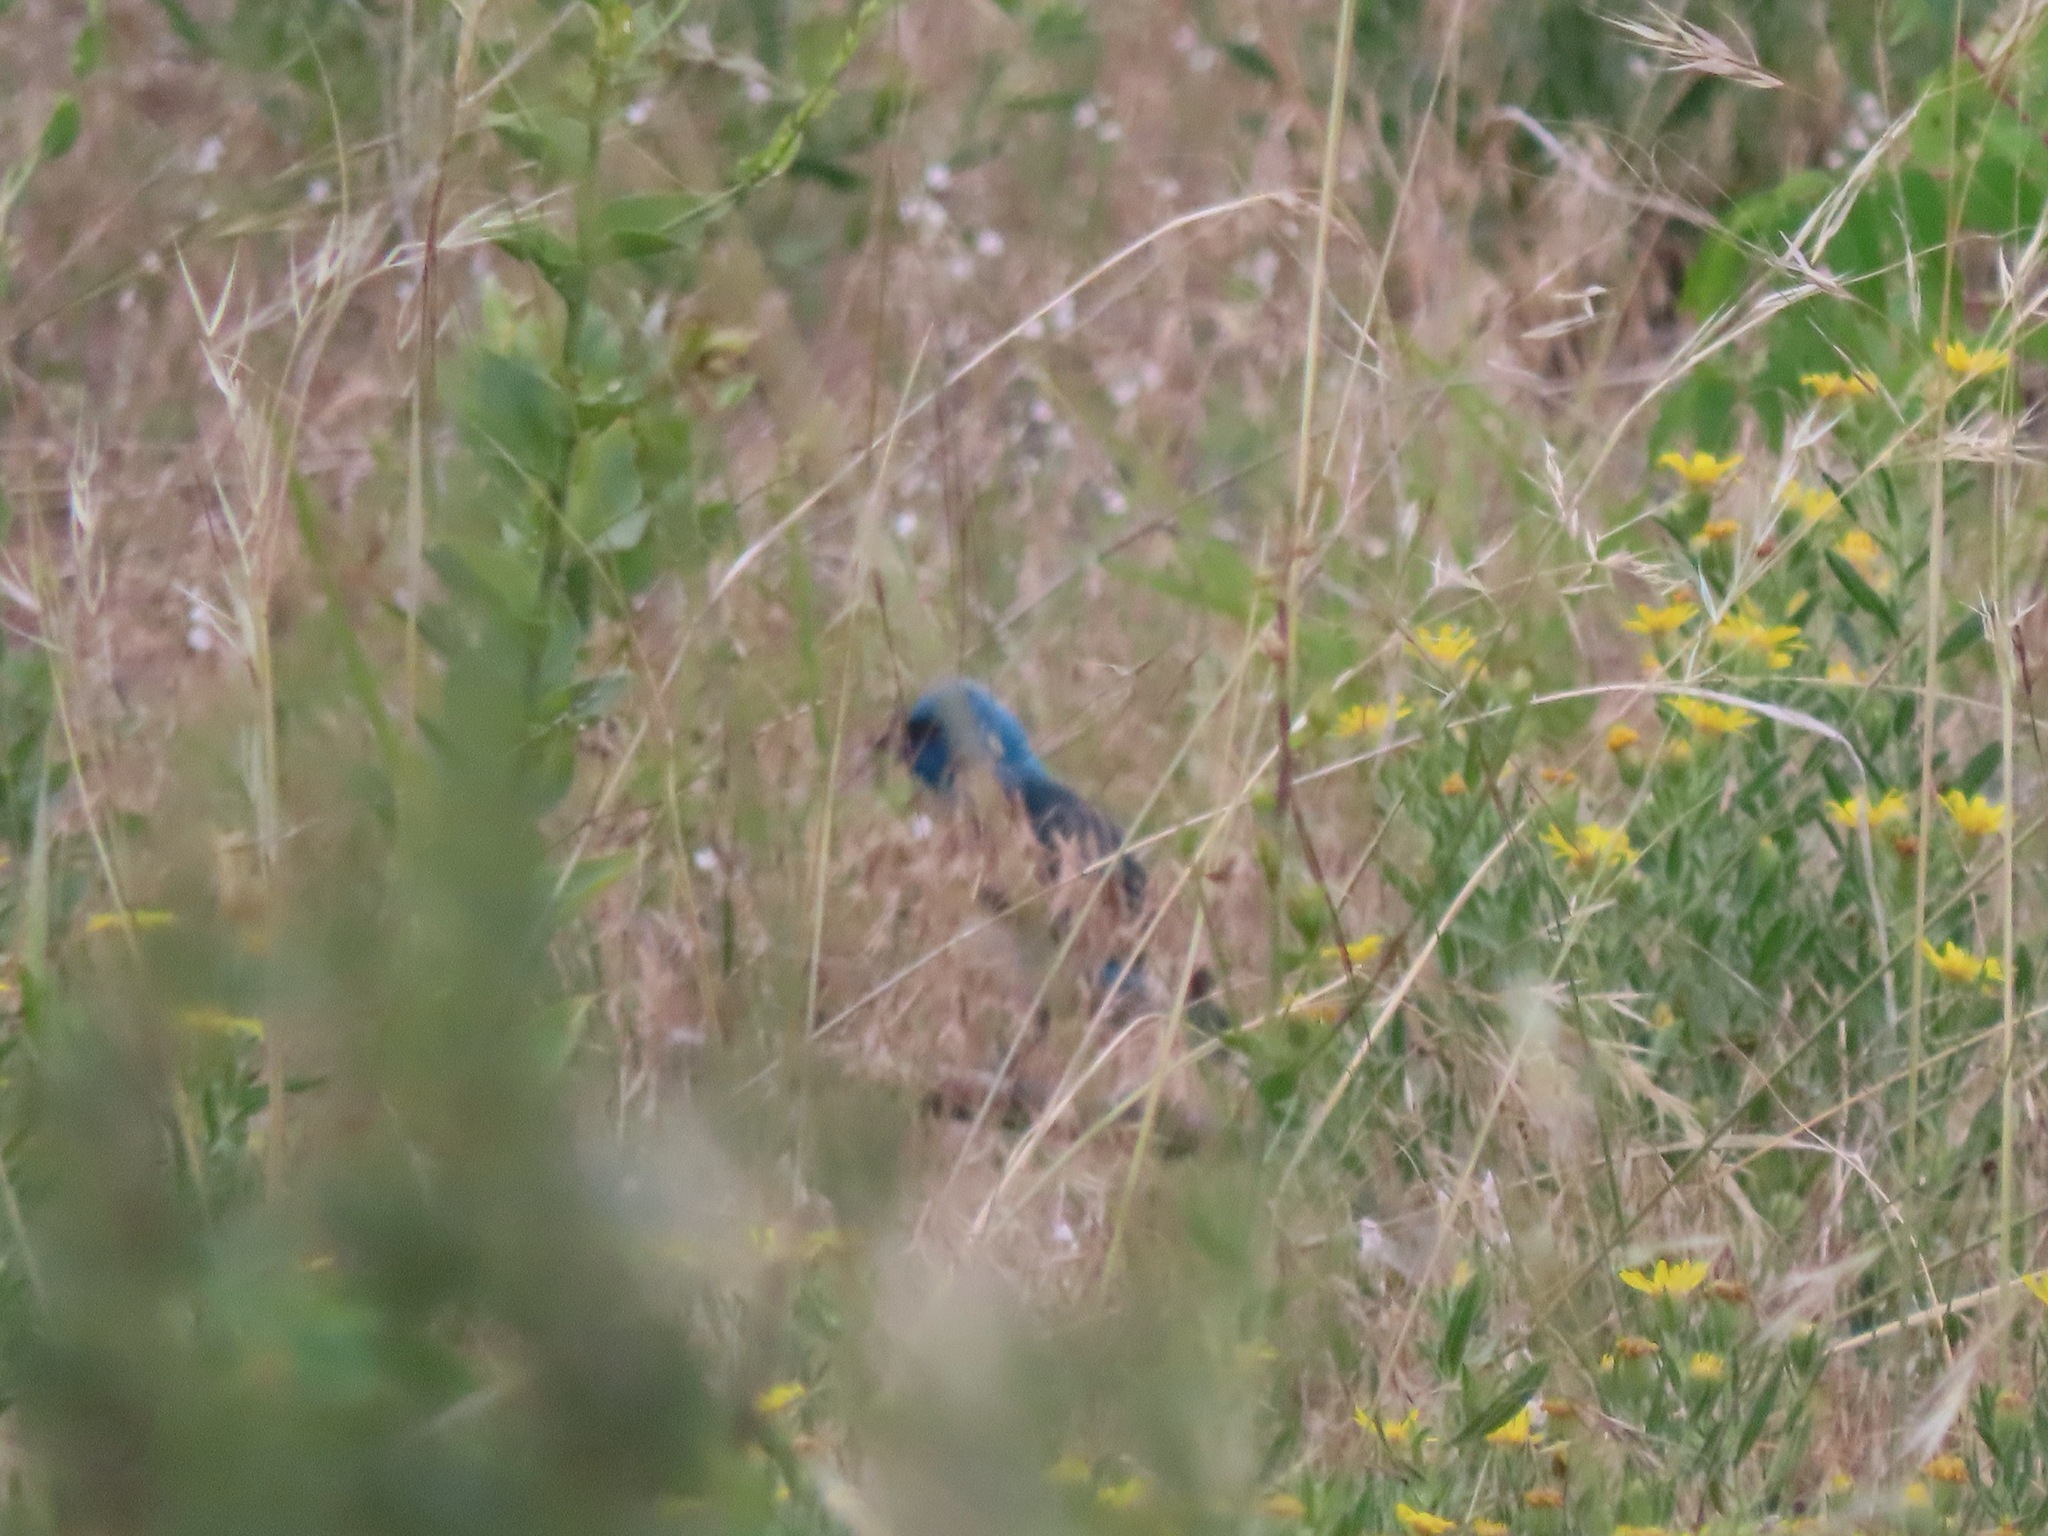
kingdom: Animalia
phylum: Chordata
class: Aves
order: Passeriformes
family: Cardinalidae
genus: Passerina
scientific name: Passerina amoena
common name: Lazuli bunting
